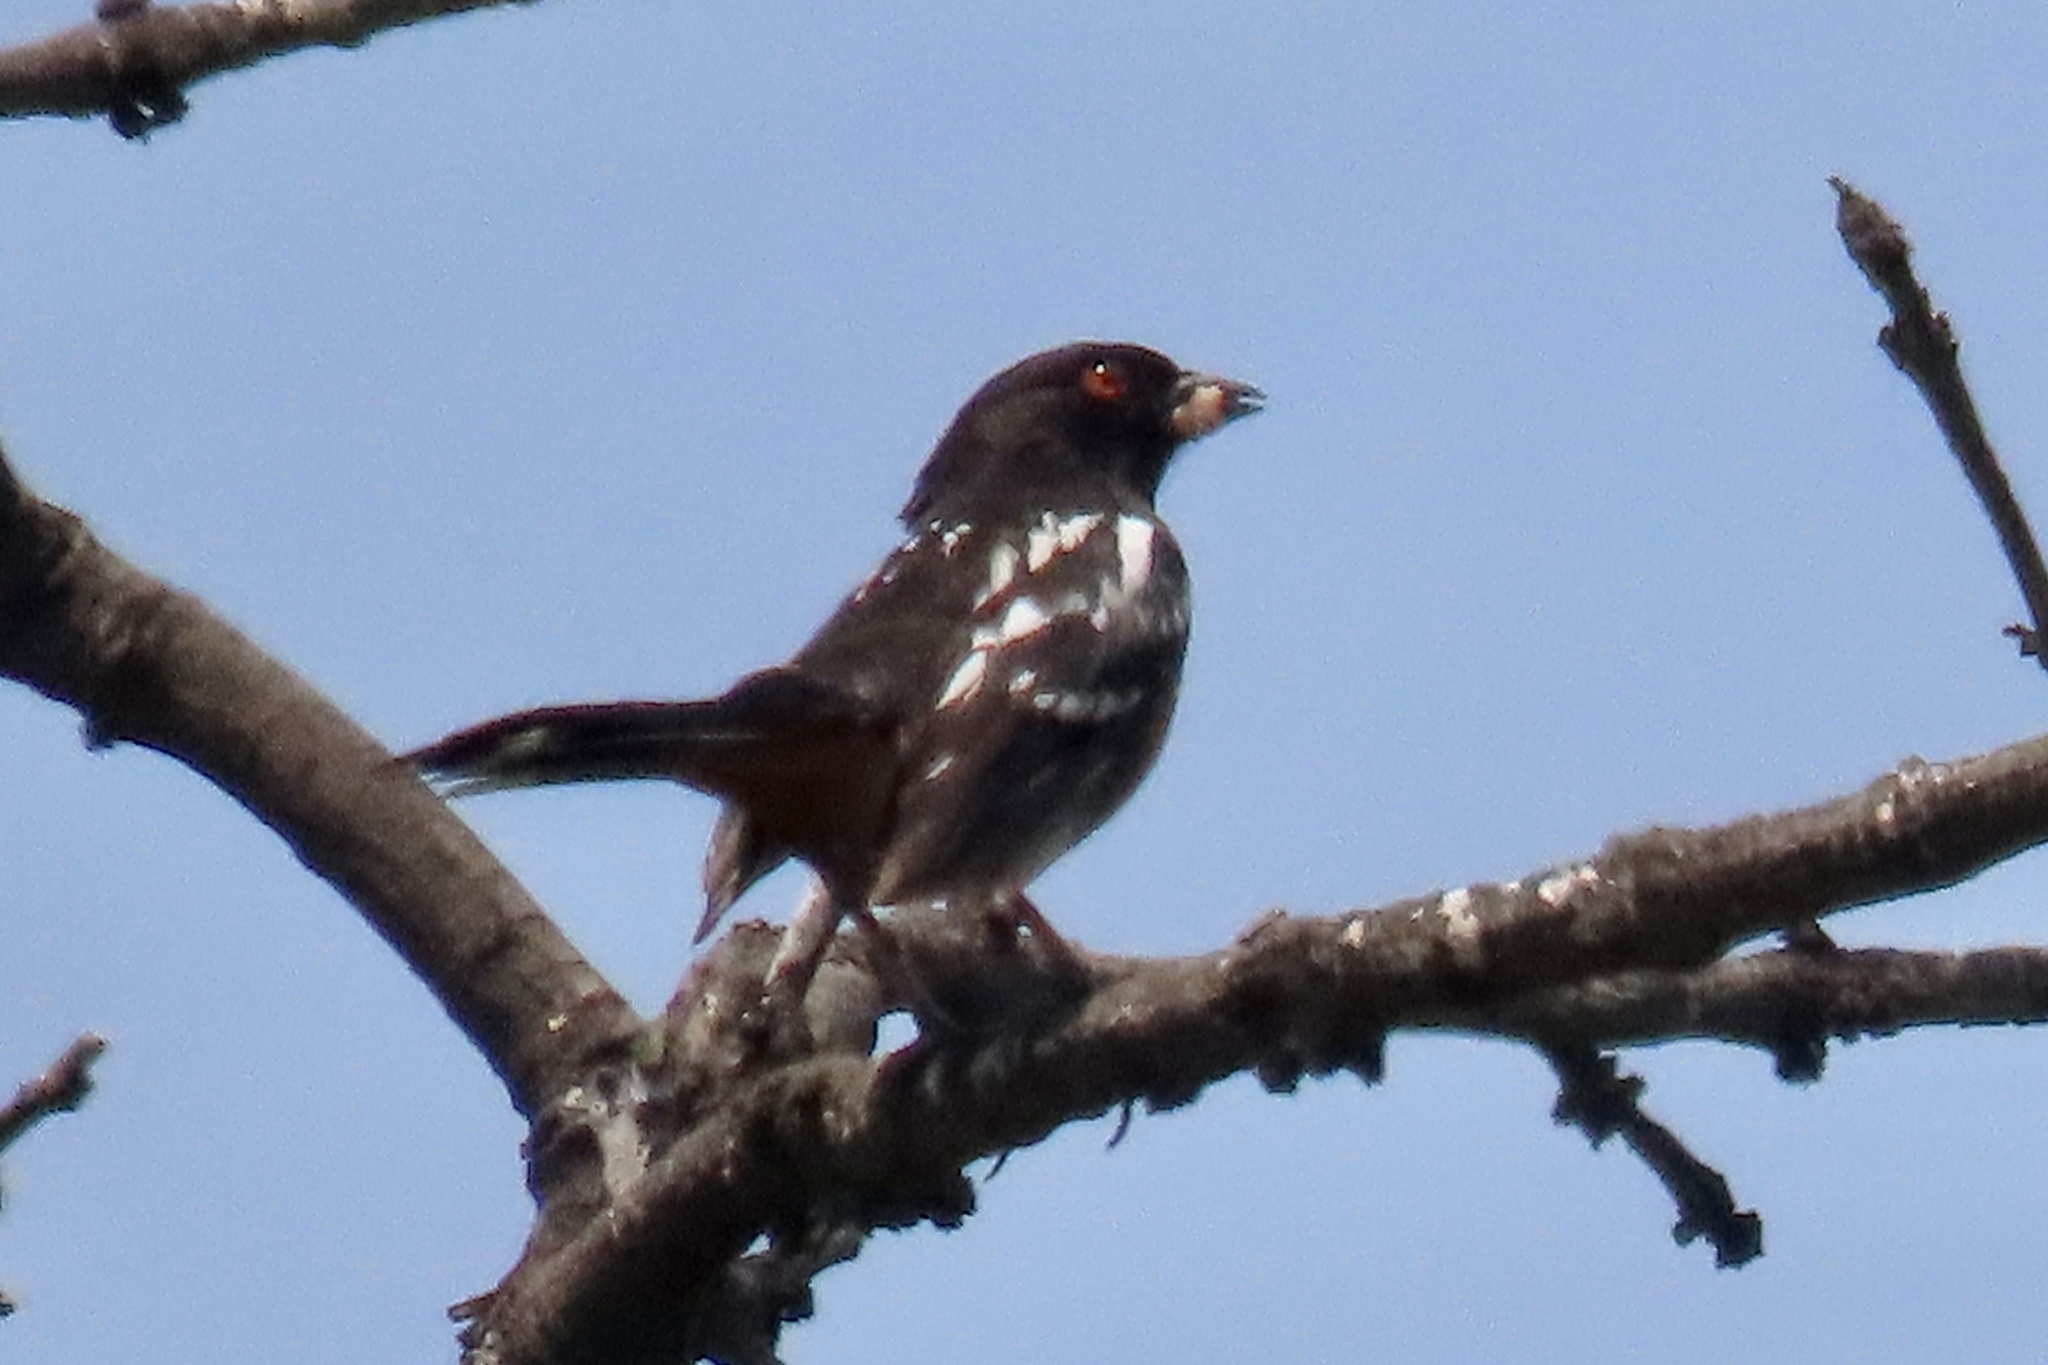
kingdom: Animalia
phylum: Chordata
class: Aves
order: Passeriformes
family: Passerellidae
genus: Pipilo
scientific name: Pipilo maculatus
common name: Spotted towhee
